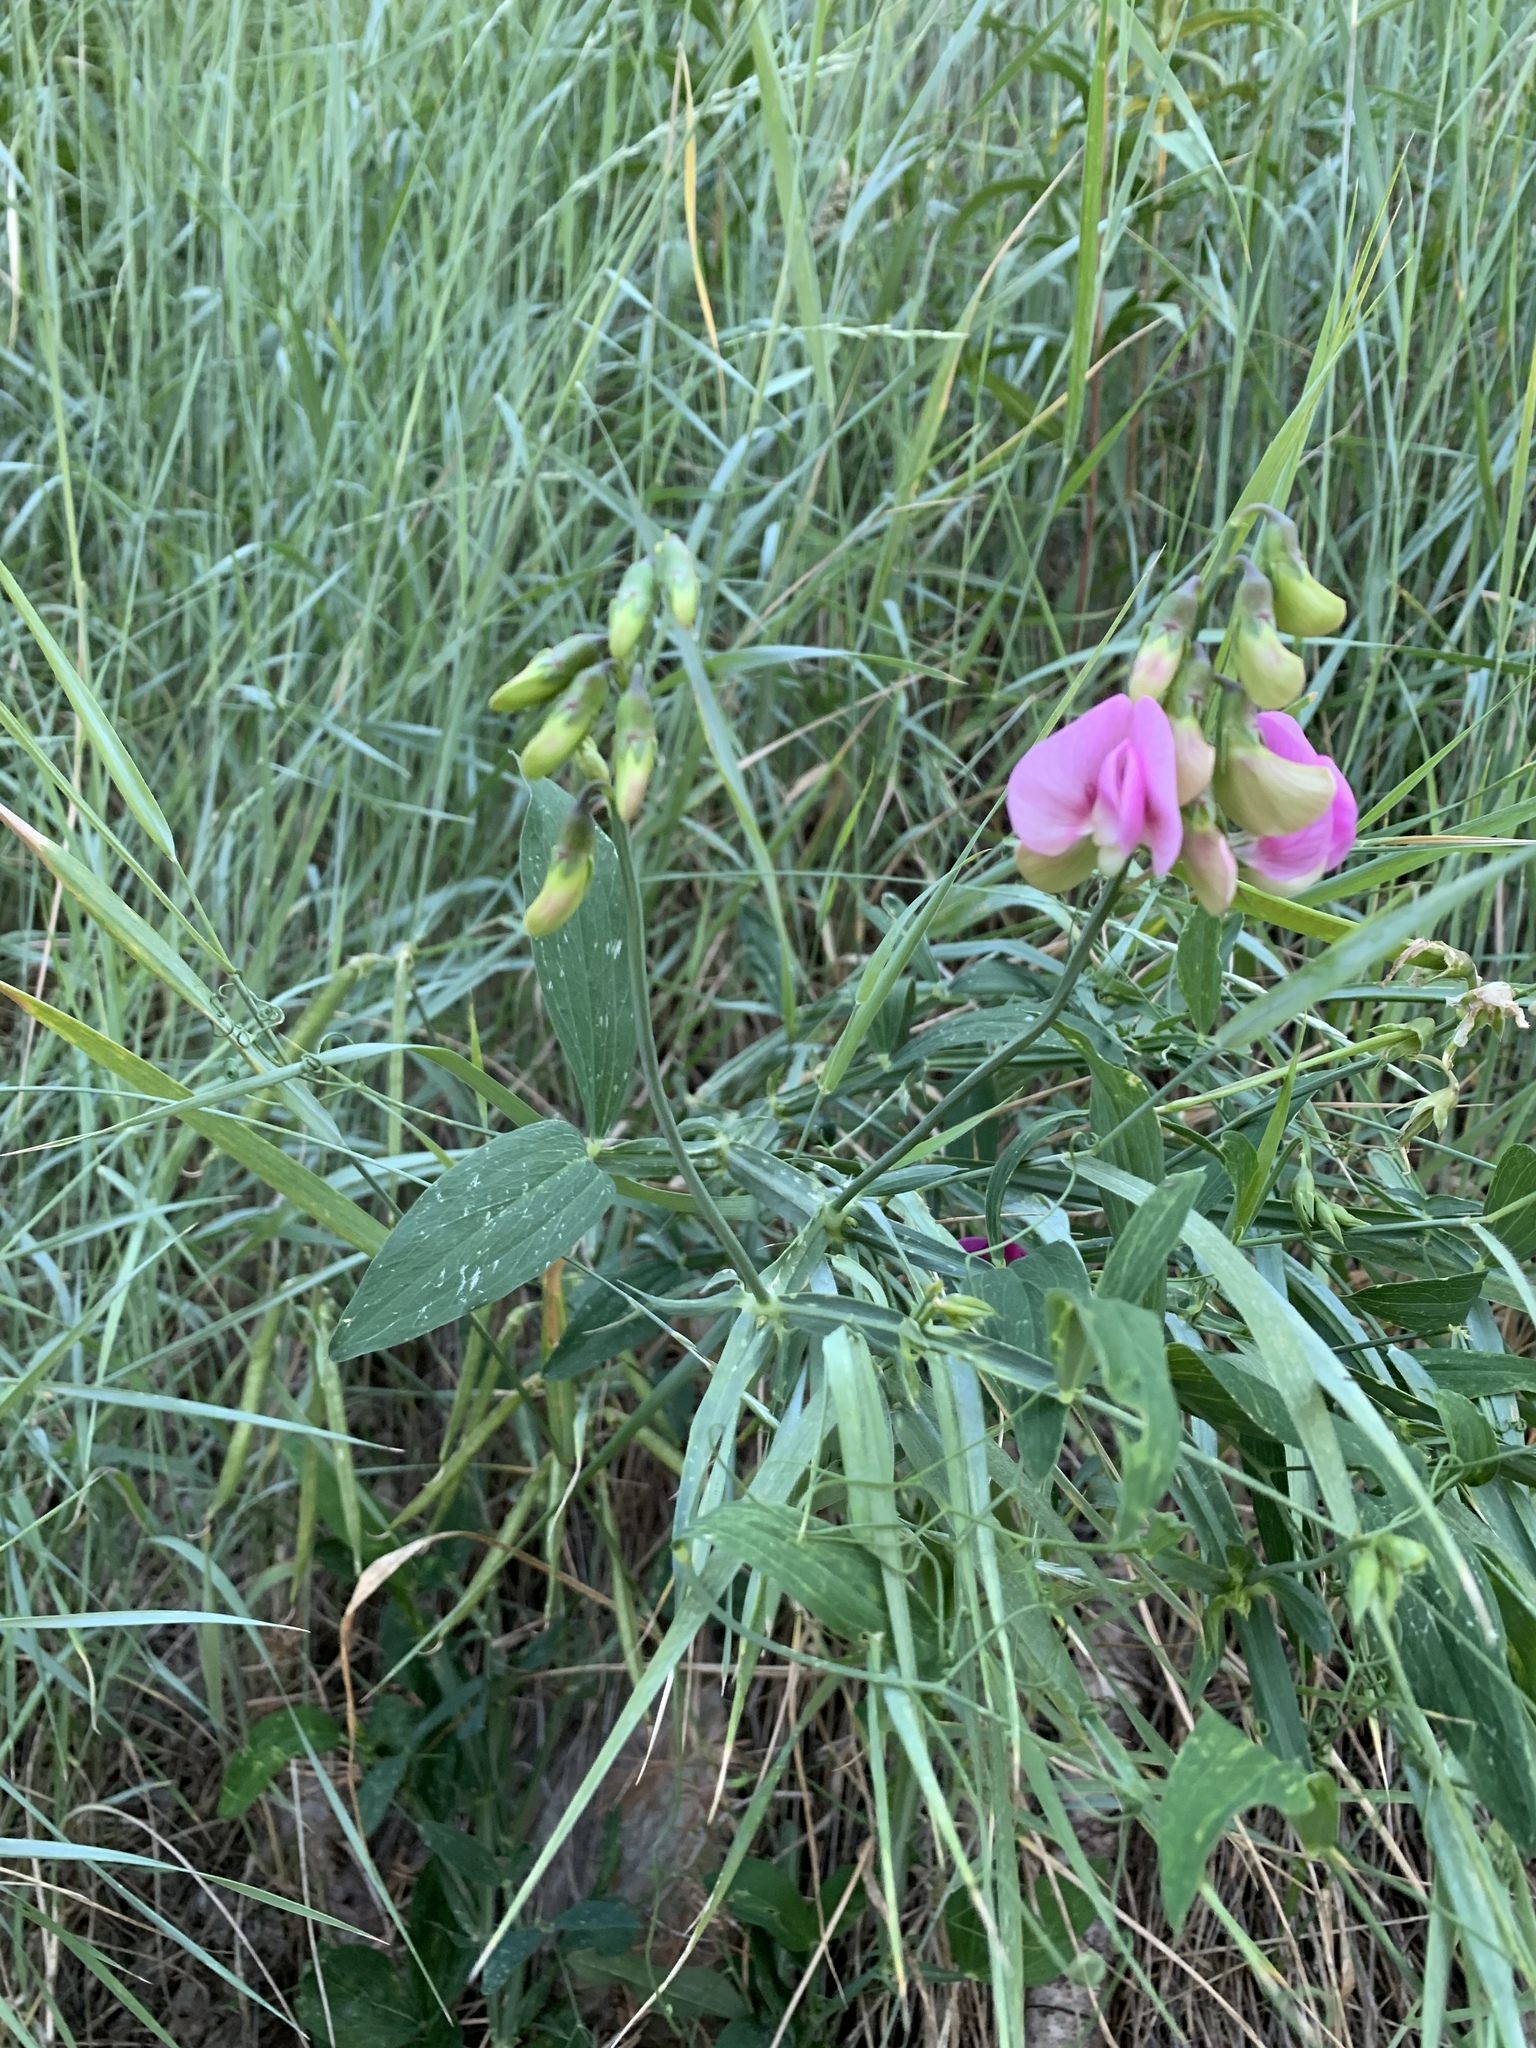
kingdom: Plantae
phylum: Tracheophyta
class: Magnoliopsida
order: Fabales
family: Fabaceae
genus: Lathyrus
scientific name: Lathyrus latifolius
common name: Perennial pea
